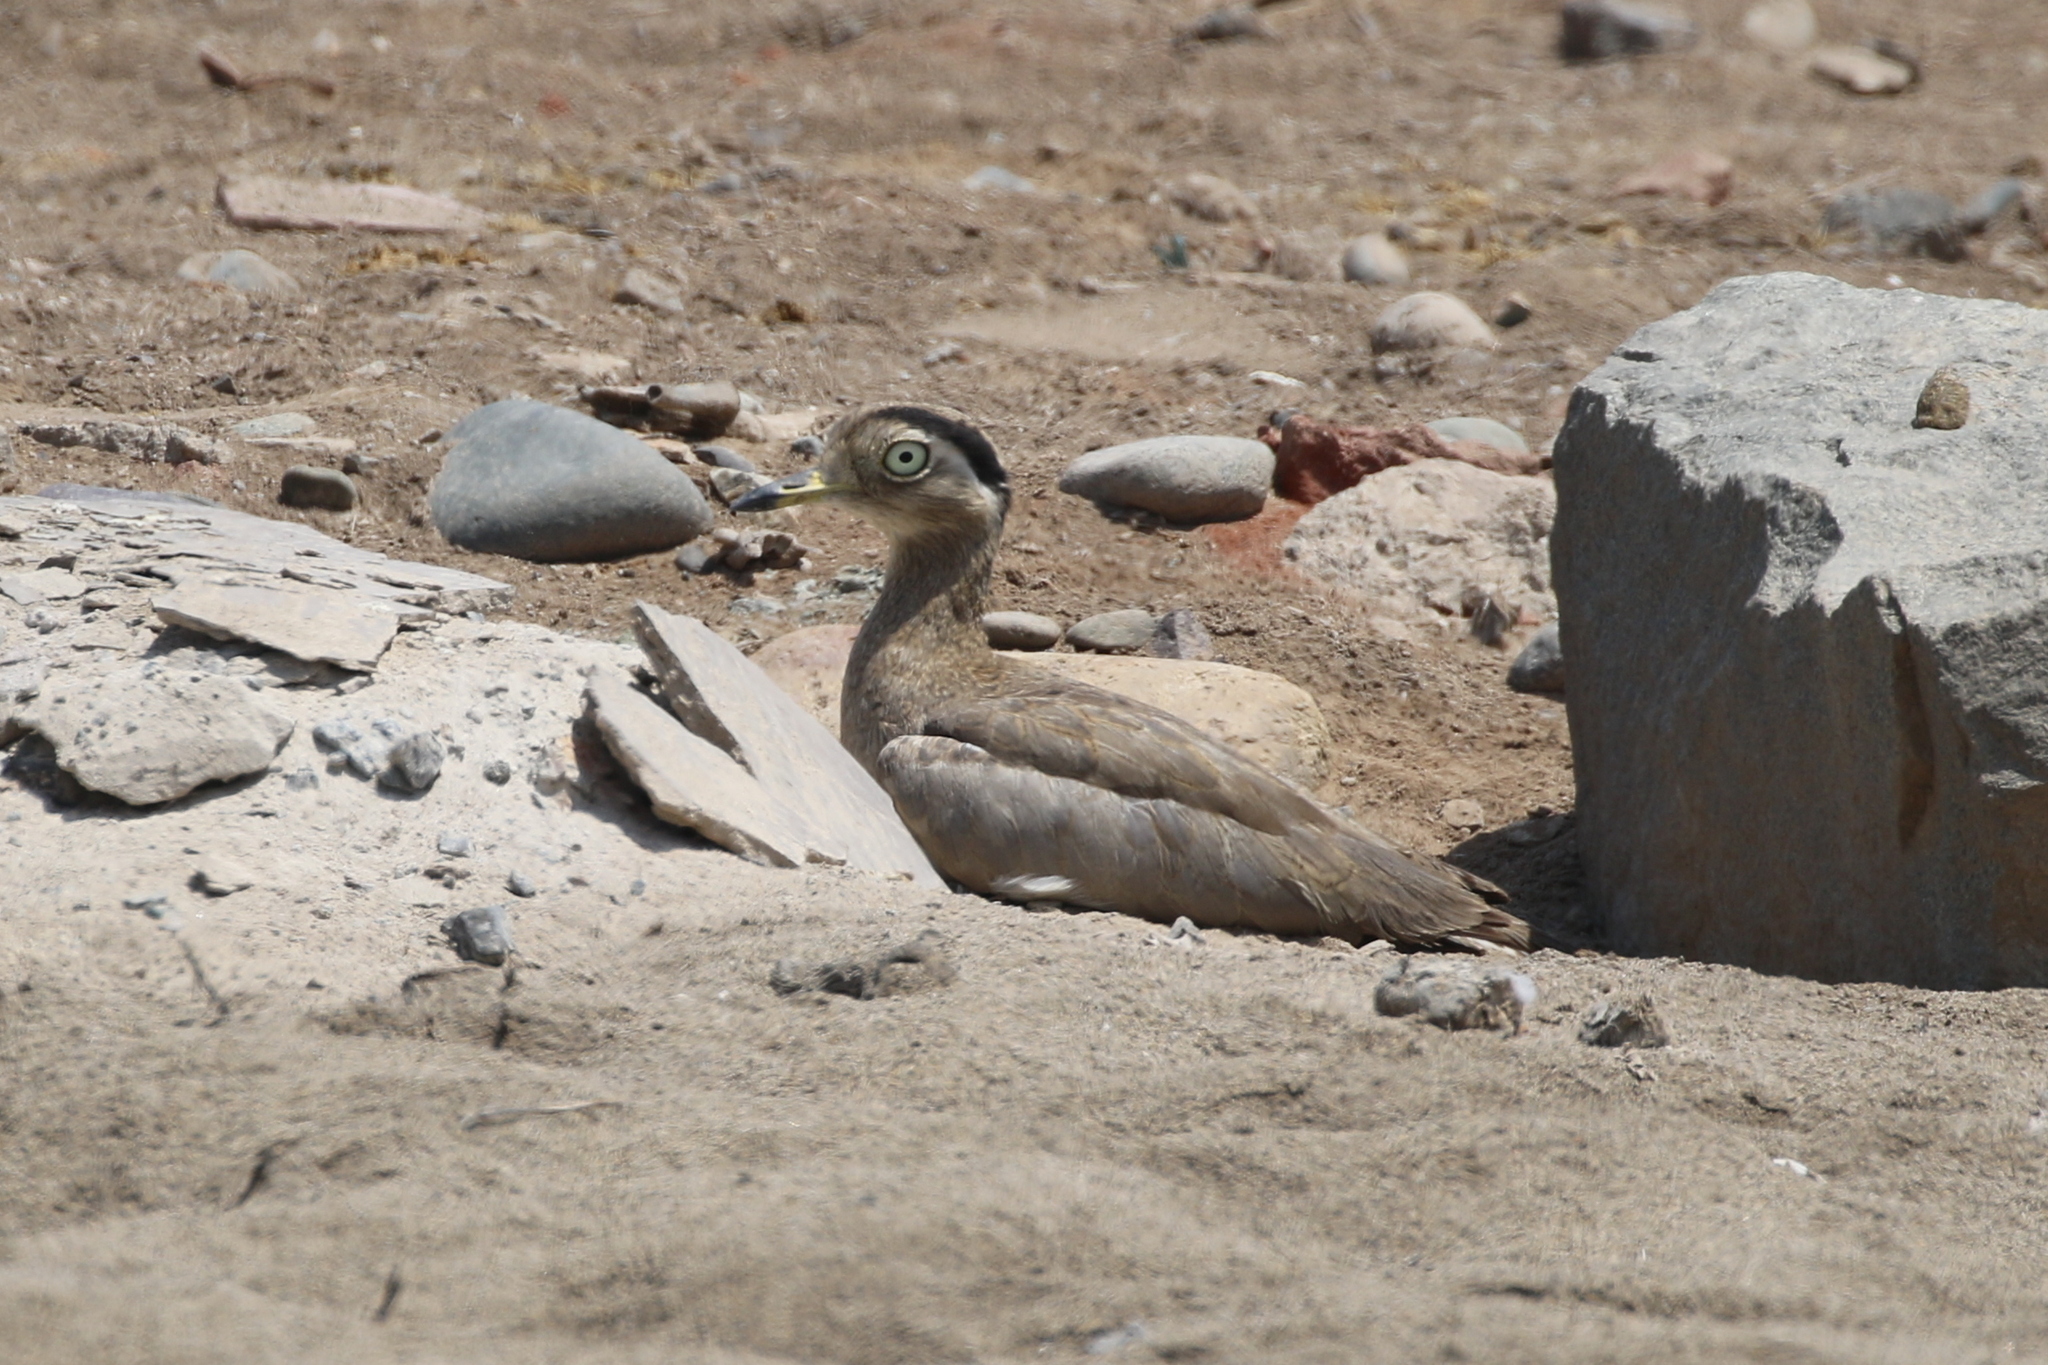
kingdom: Animalia
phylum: Chordata
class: Aves
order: Charadriiformes
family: Burhinidae
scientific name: Burhinidae
